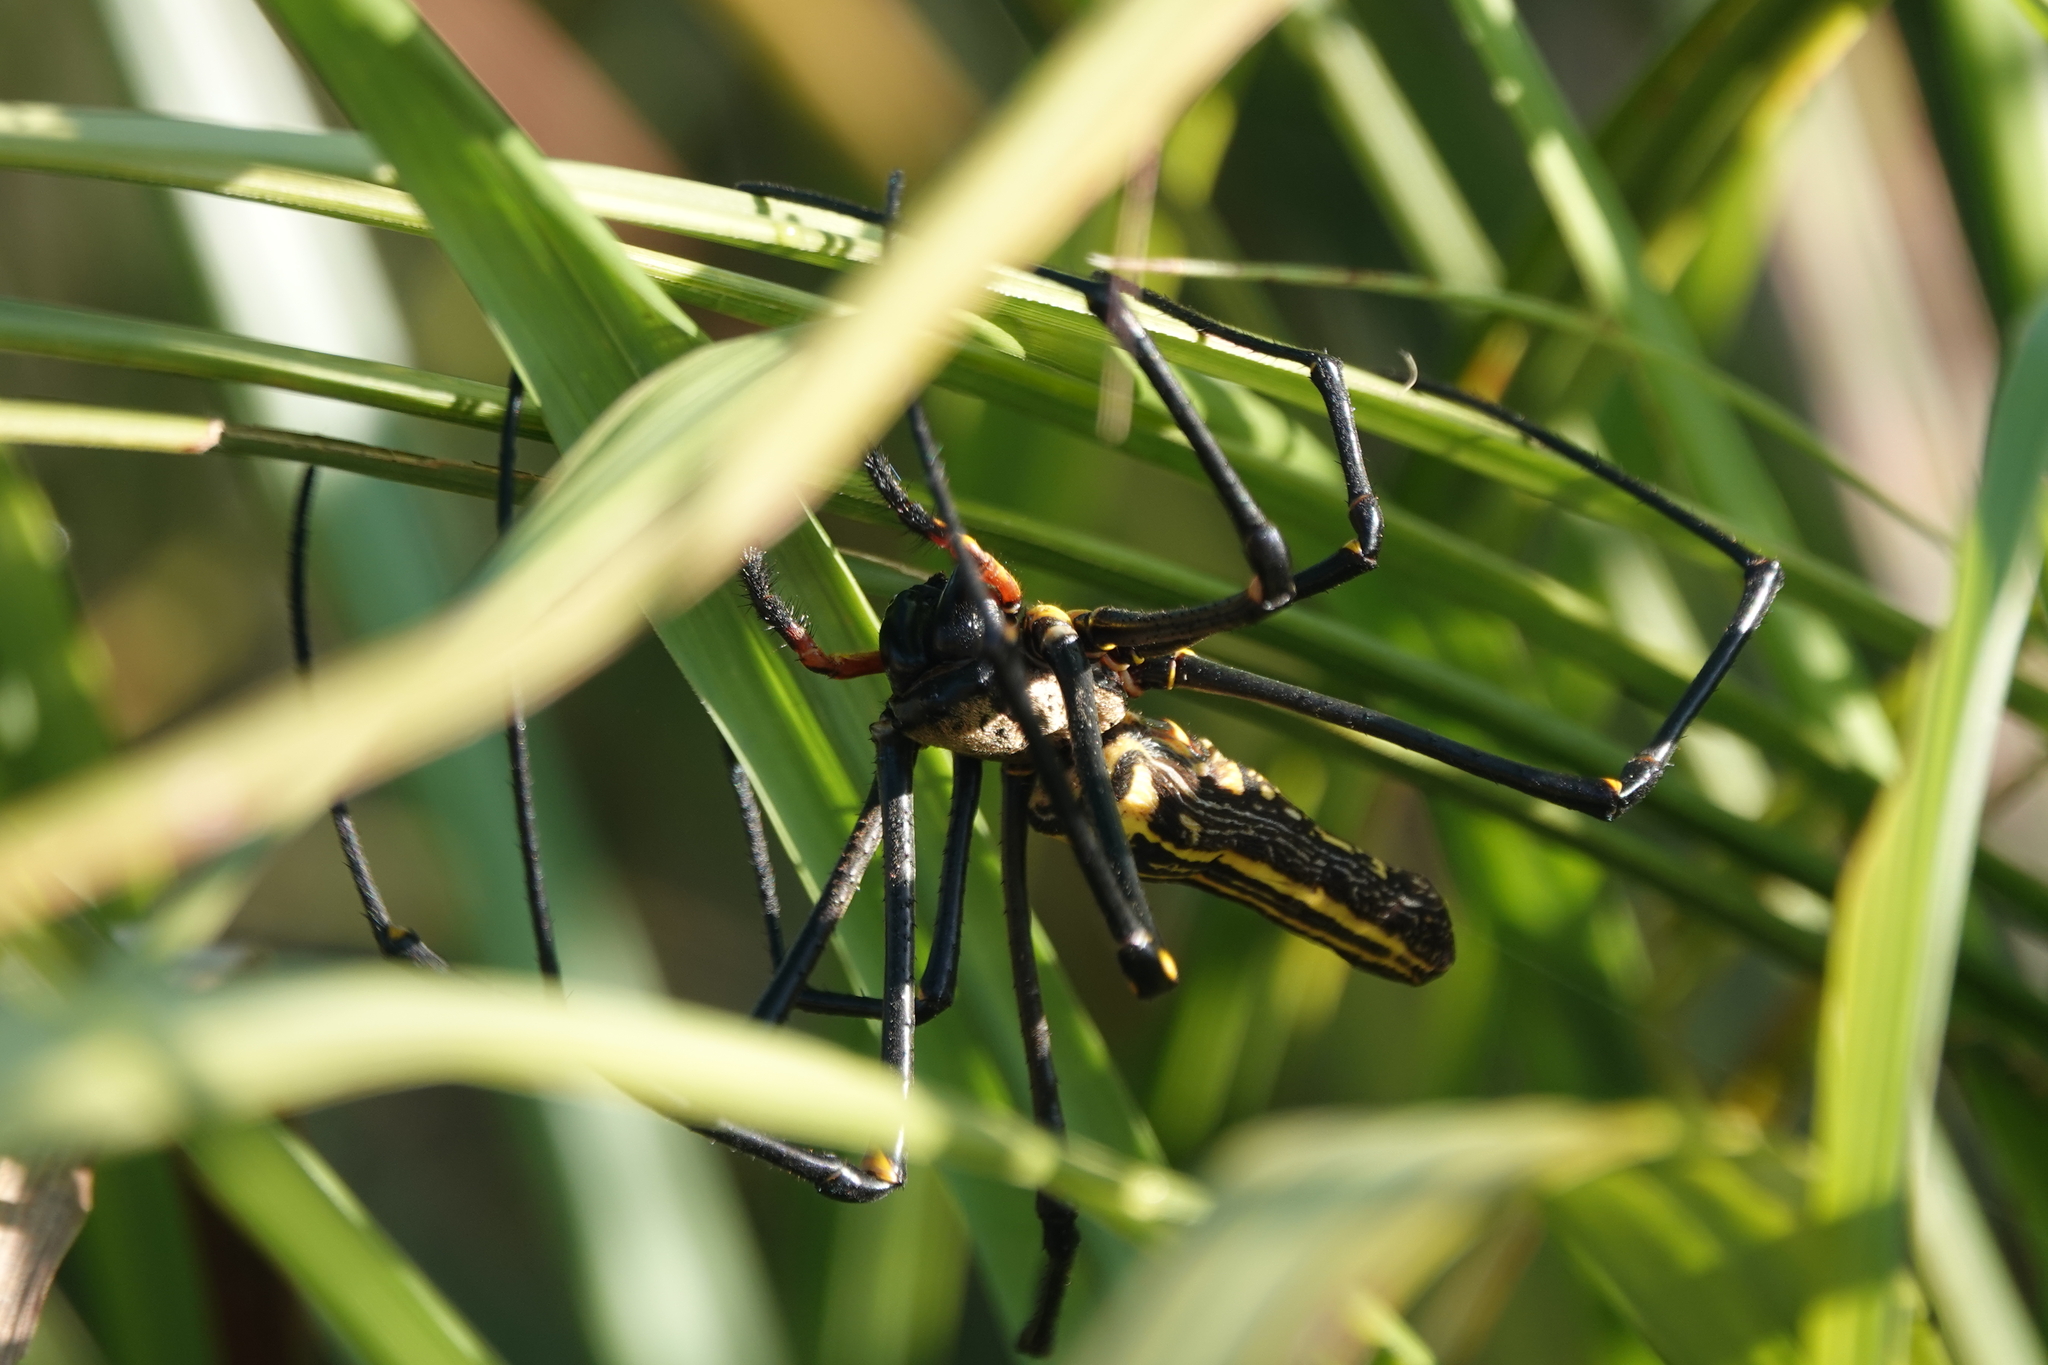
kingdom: Animalia
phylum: Arthropoda
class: Arachnida
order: Araneae
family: Araneidae
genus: Nephila
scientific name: Nephila pilipes
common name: Giant golden orb weaver
